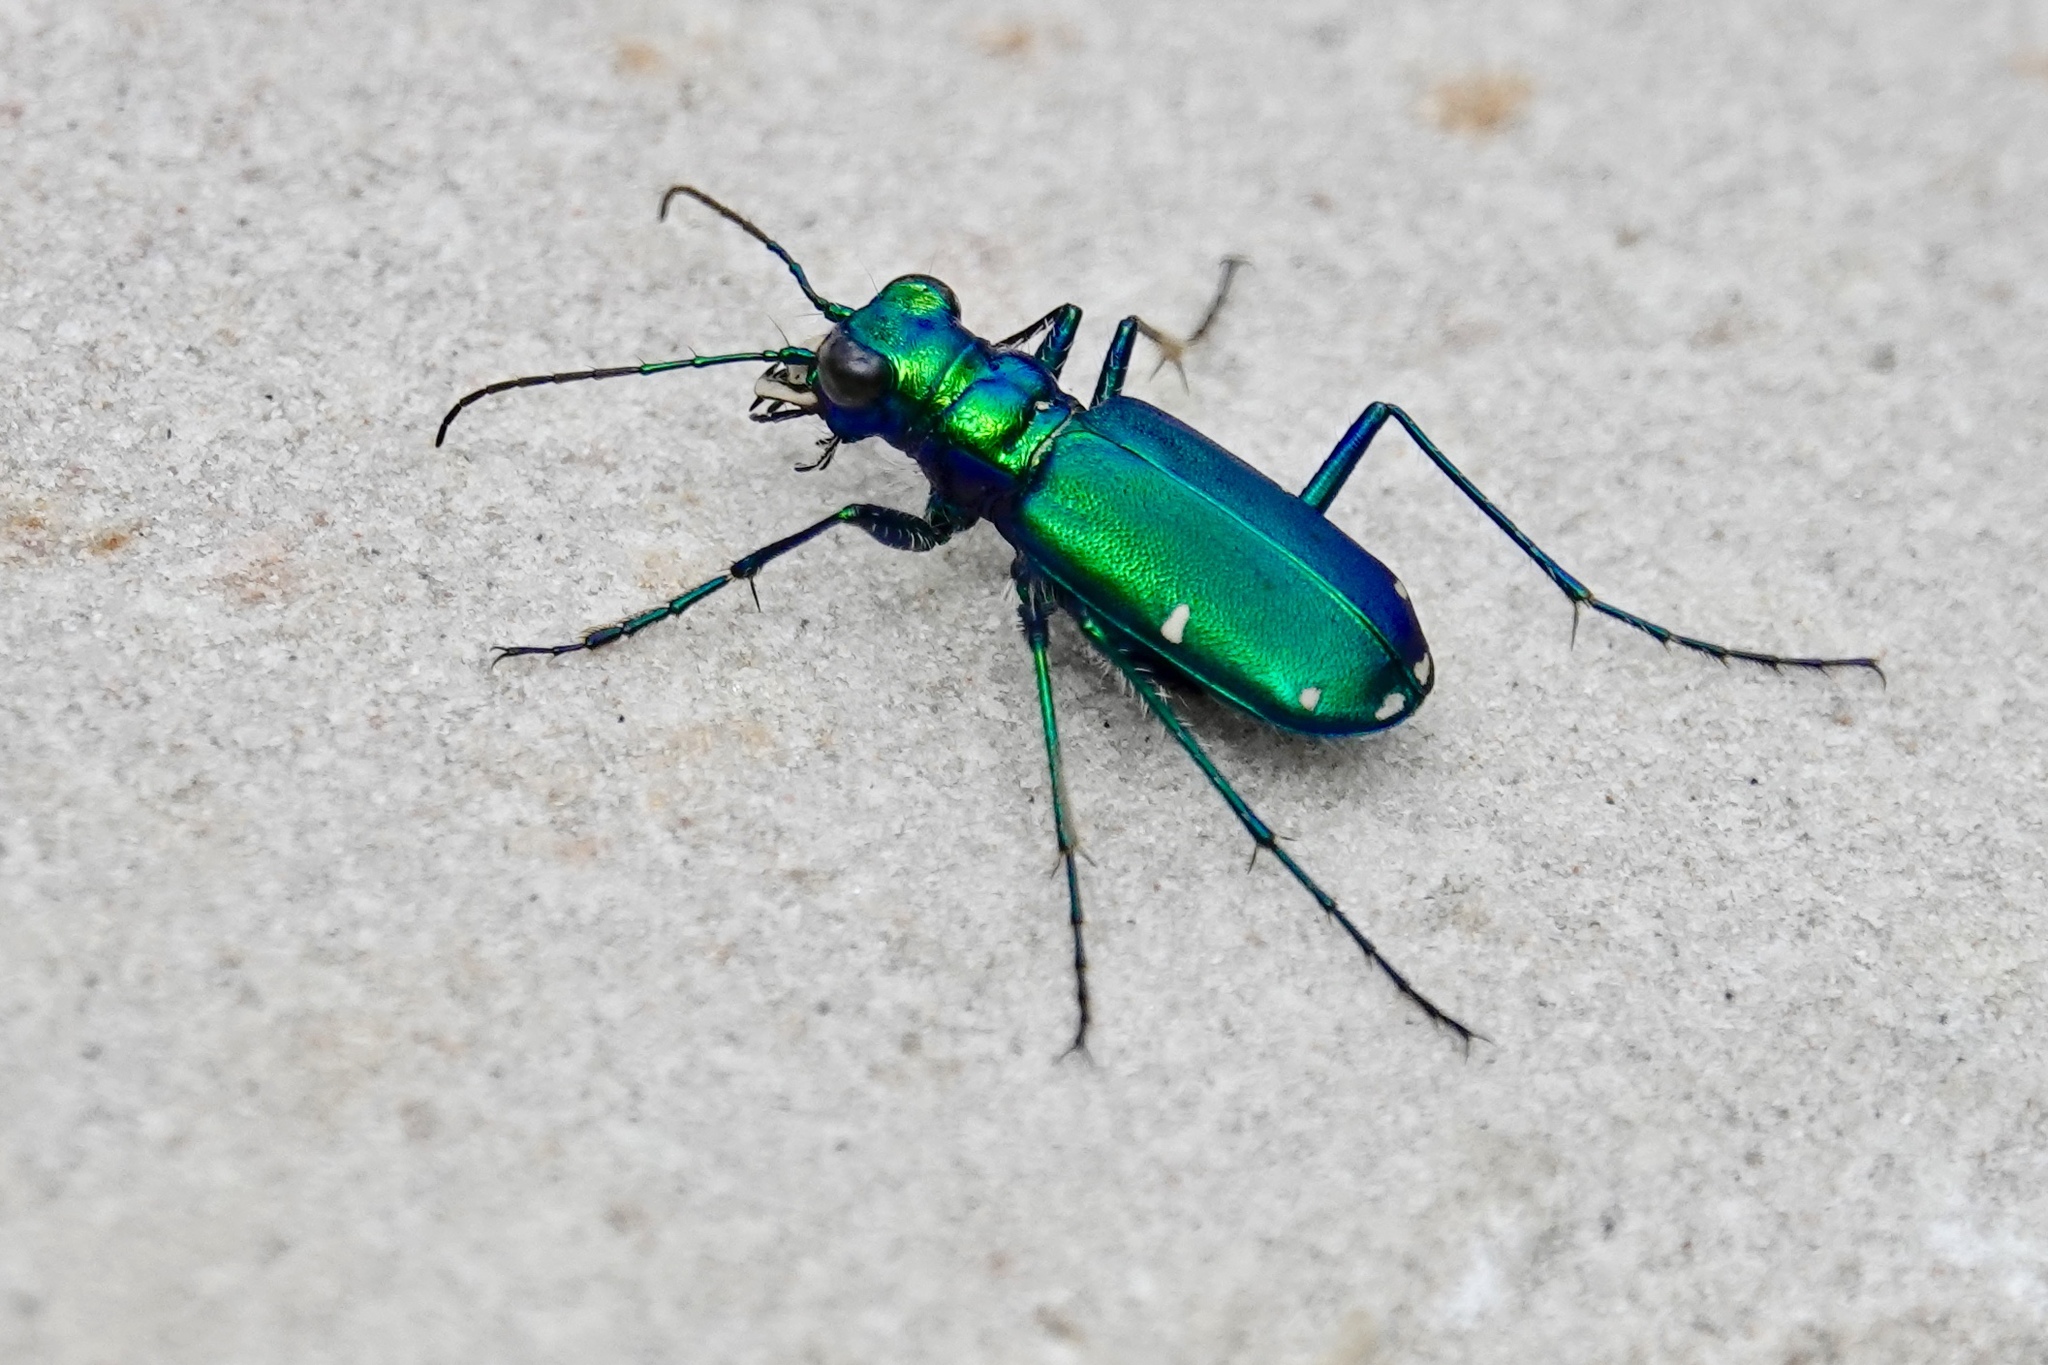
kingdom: Animalia
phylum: Arthropoda
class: Insecta
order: Coleoptera
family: Carabidae
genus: Cicindela
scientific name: Cicindela sexguttata
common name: Six-spotted tiger beetle
